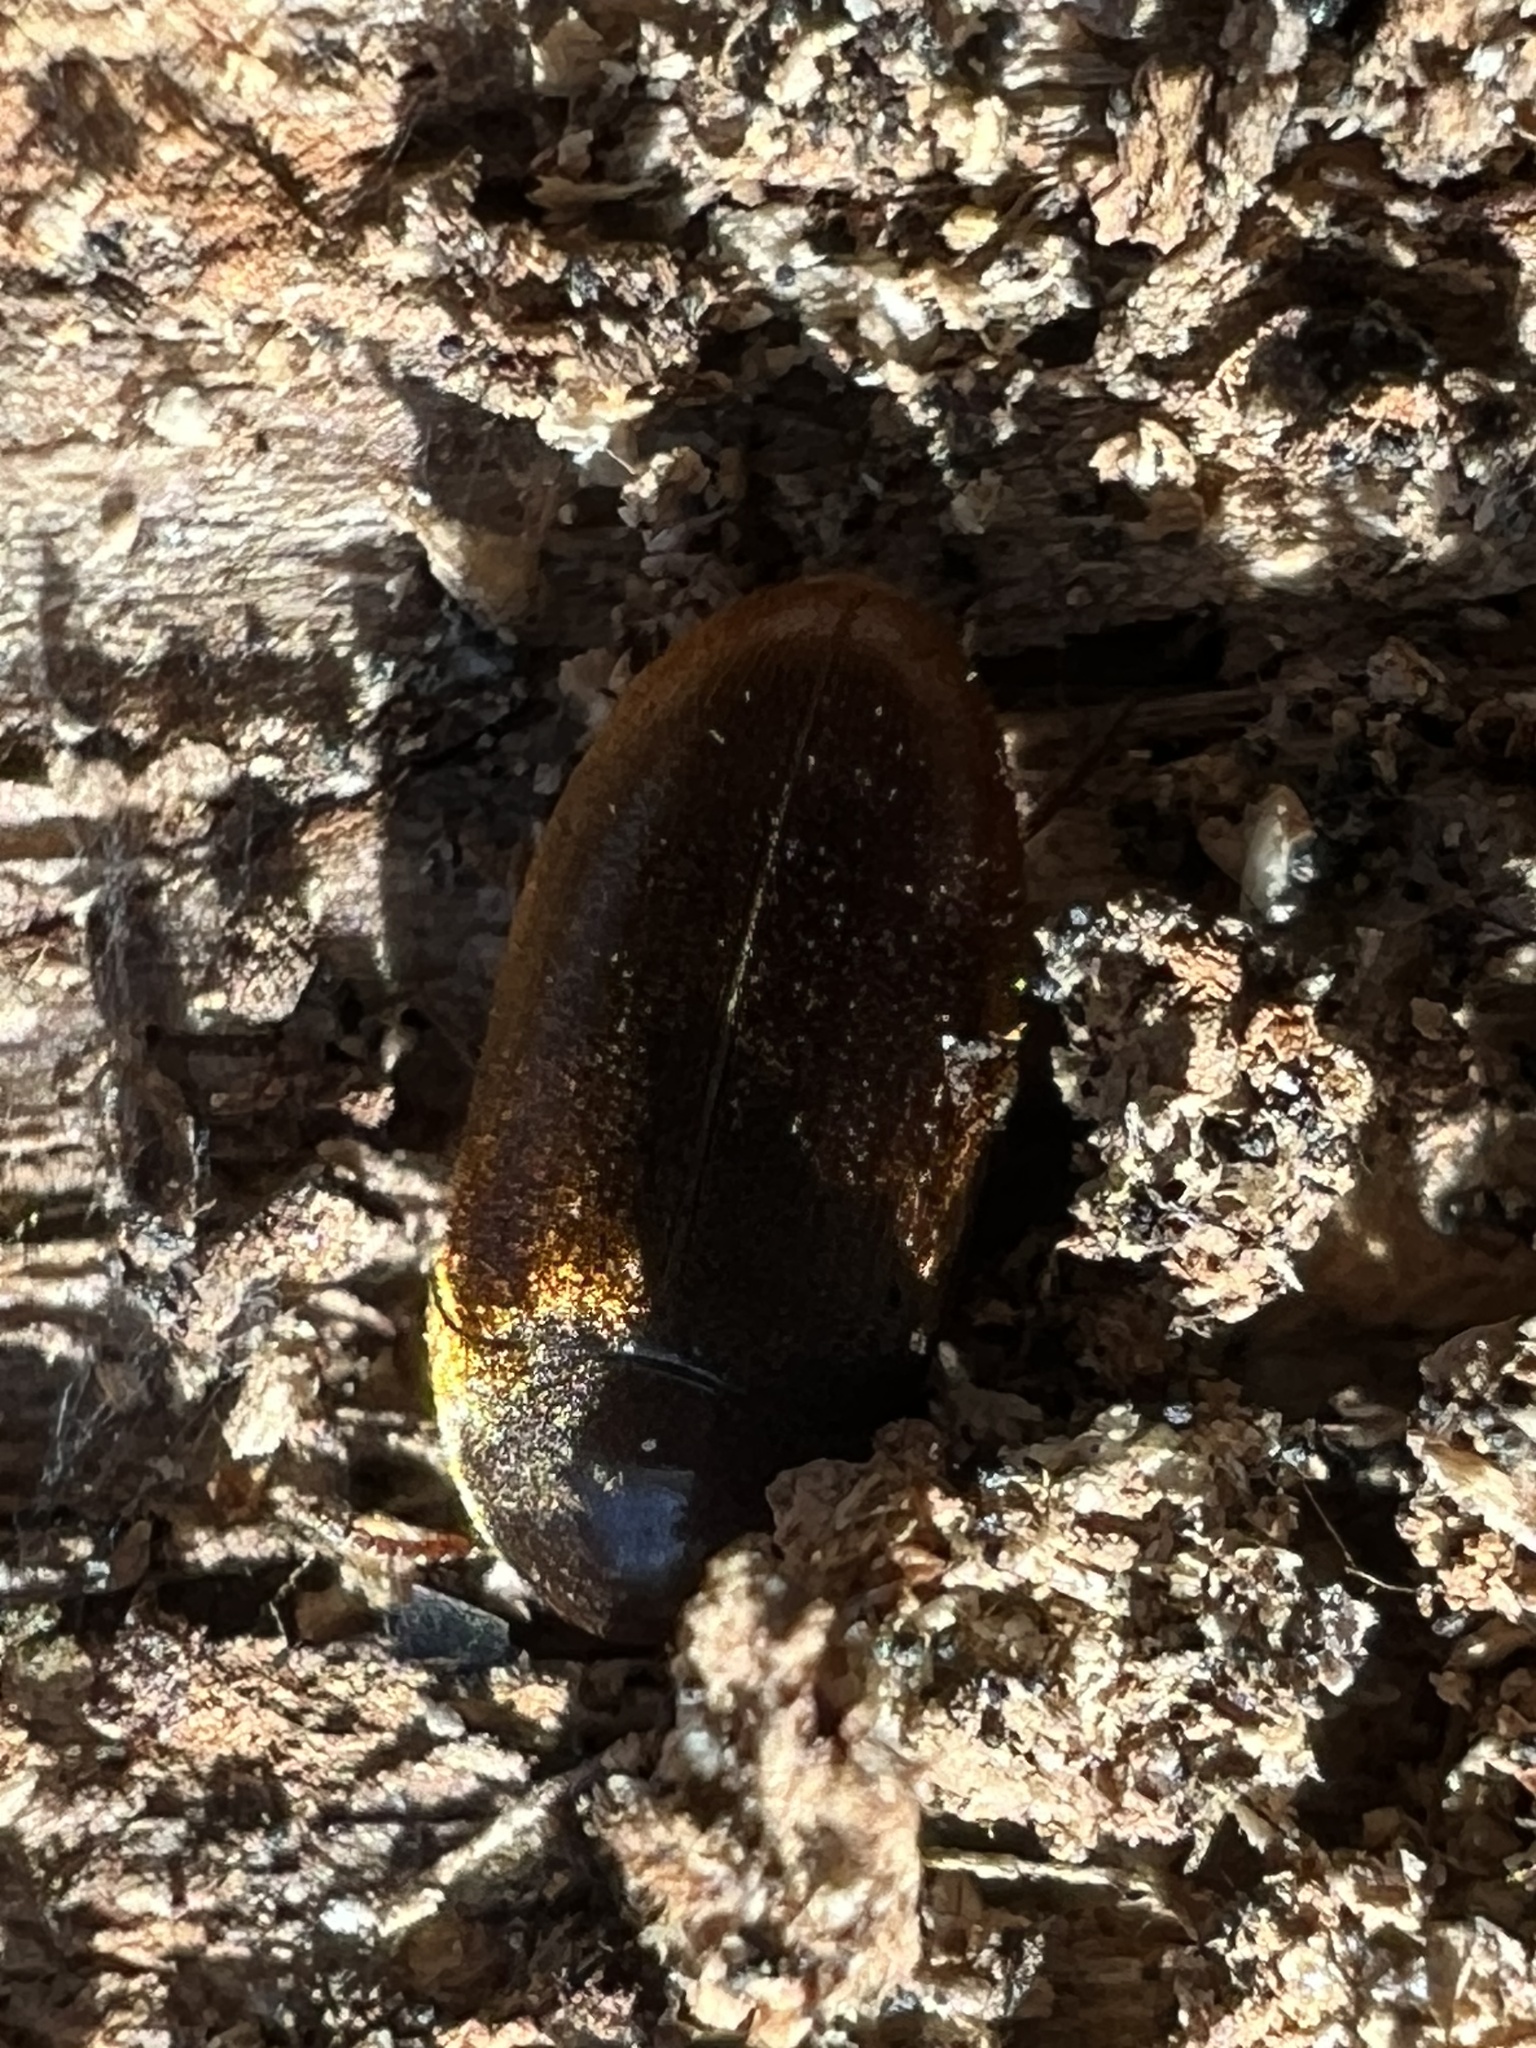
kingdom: Animalia
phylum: Arthropoda
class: Insecta
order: Coleoptera
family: Tetratomidae
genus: Eustrophus
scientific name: Eustrophus tomentosus
